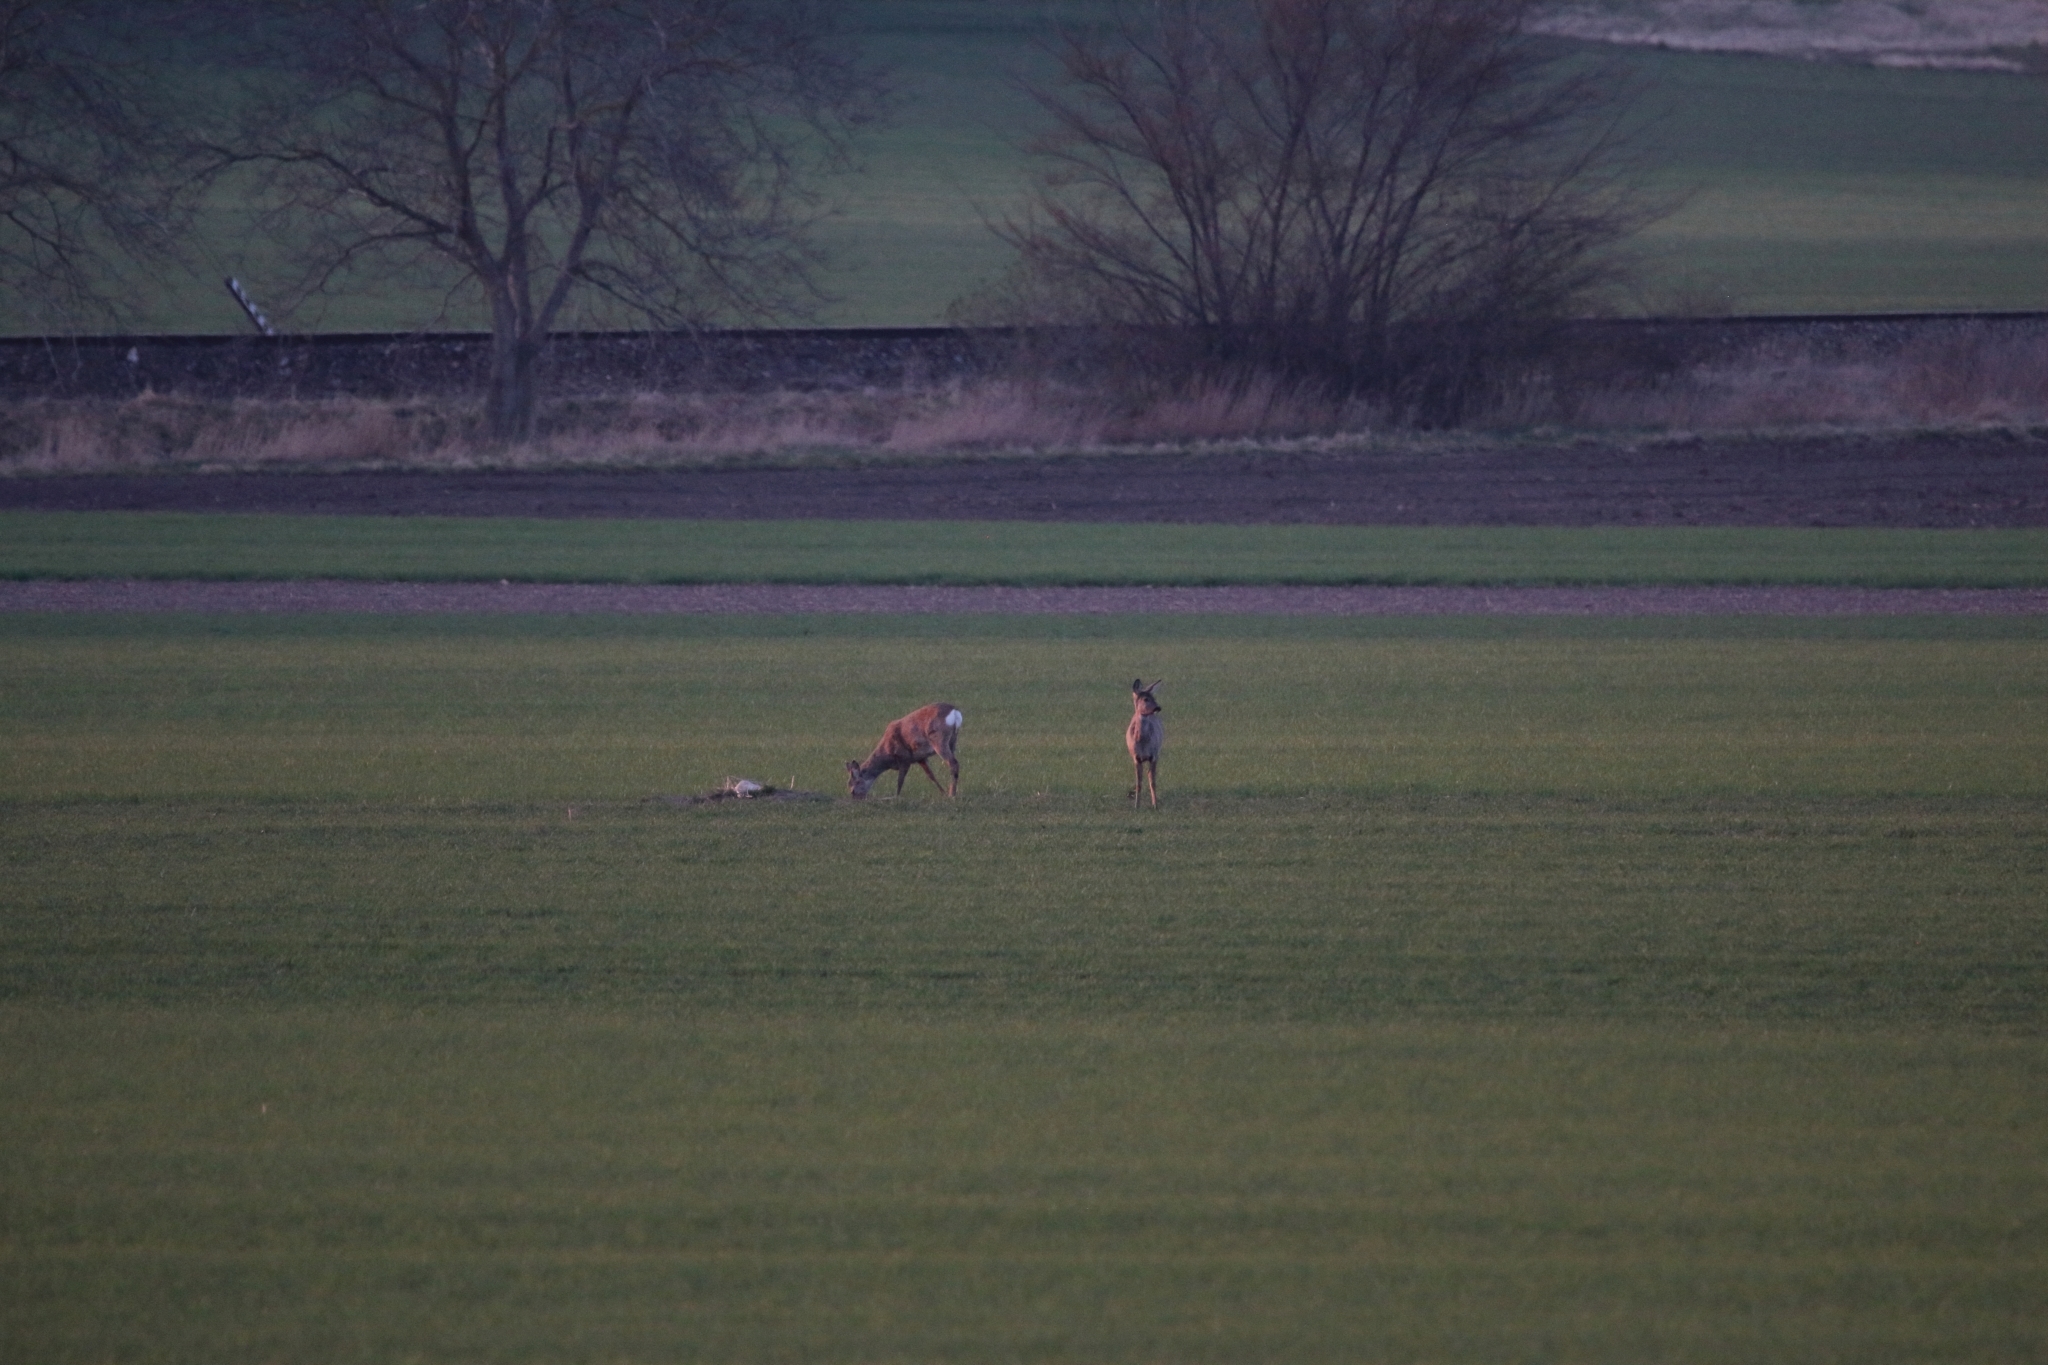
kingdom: Animalia
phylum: Chordata
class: Mammalia
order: Artiodactyla
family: Cervidae
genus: Capreolus
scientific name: Capreolus capreolus
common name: Western roe deer
